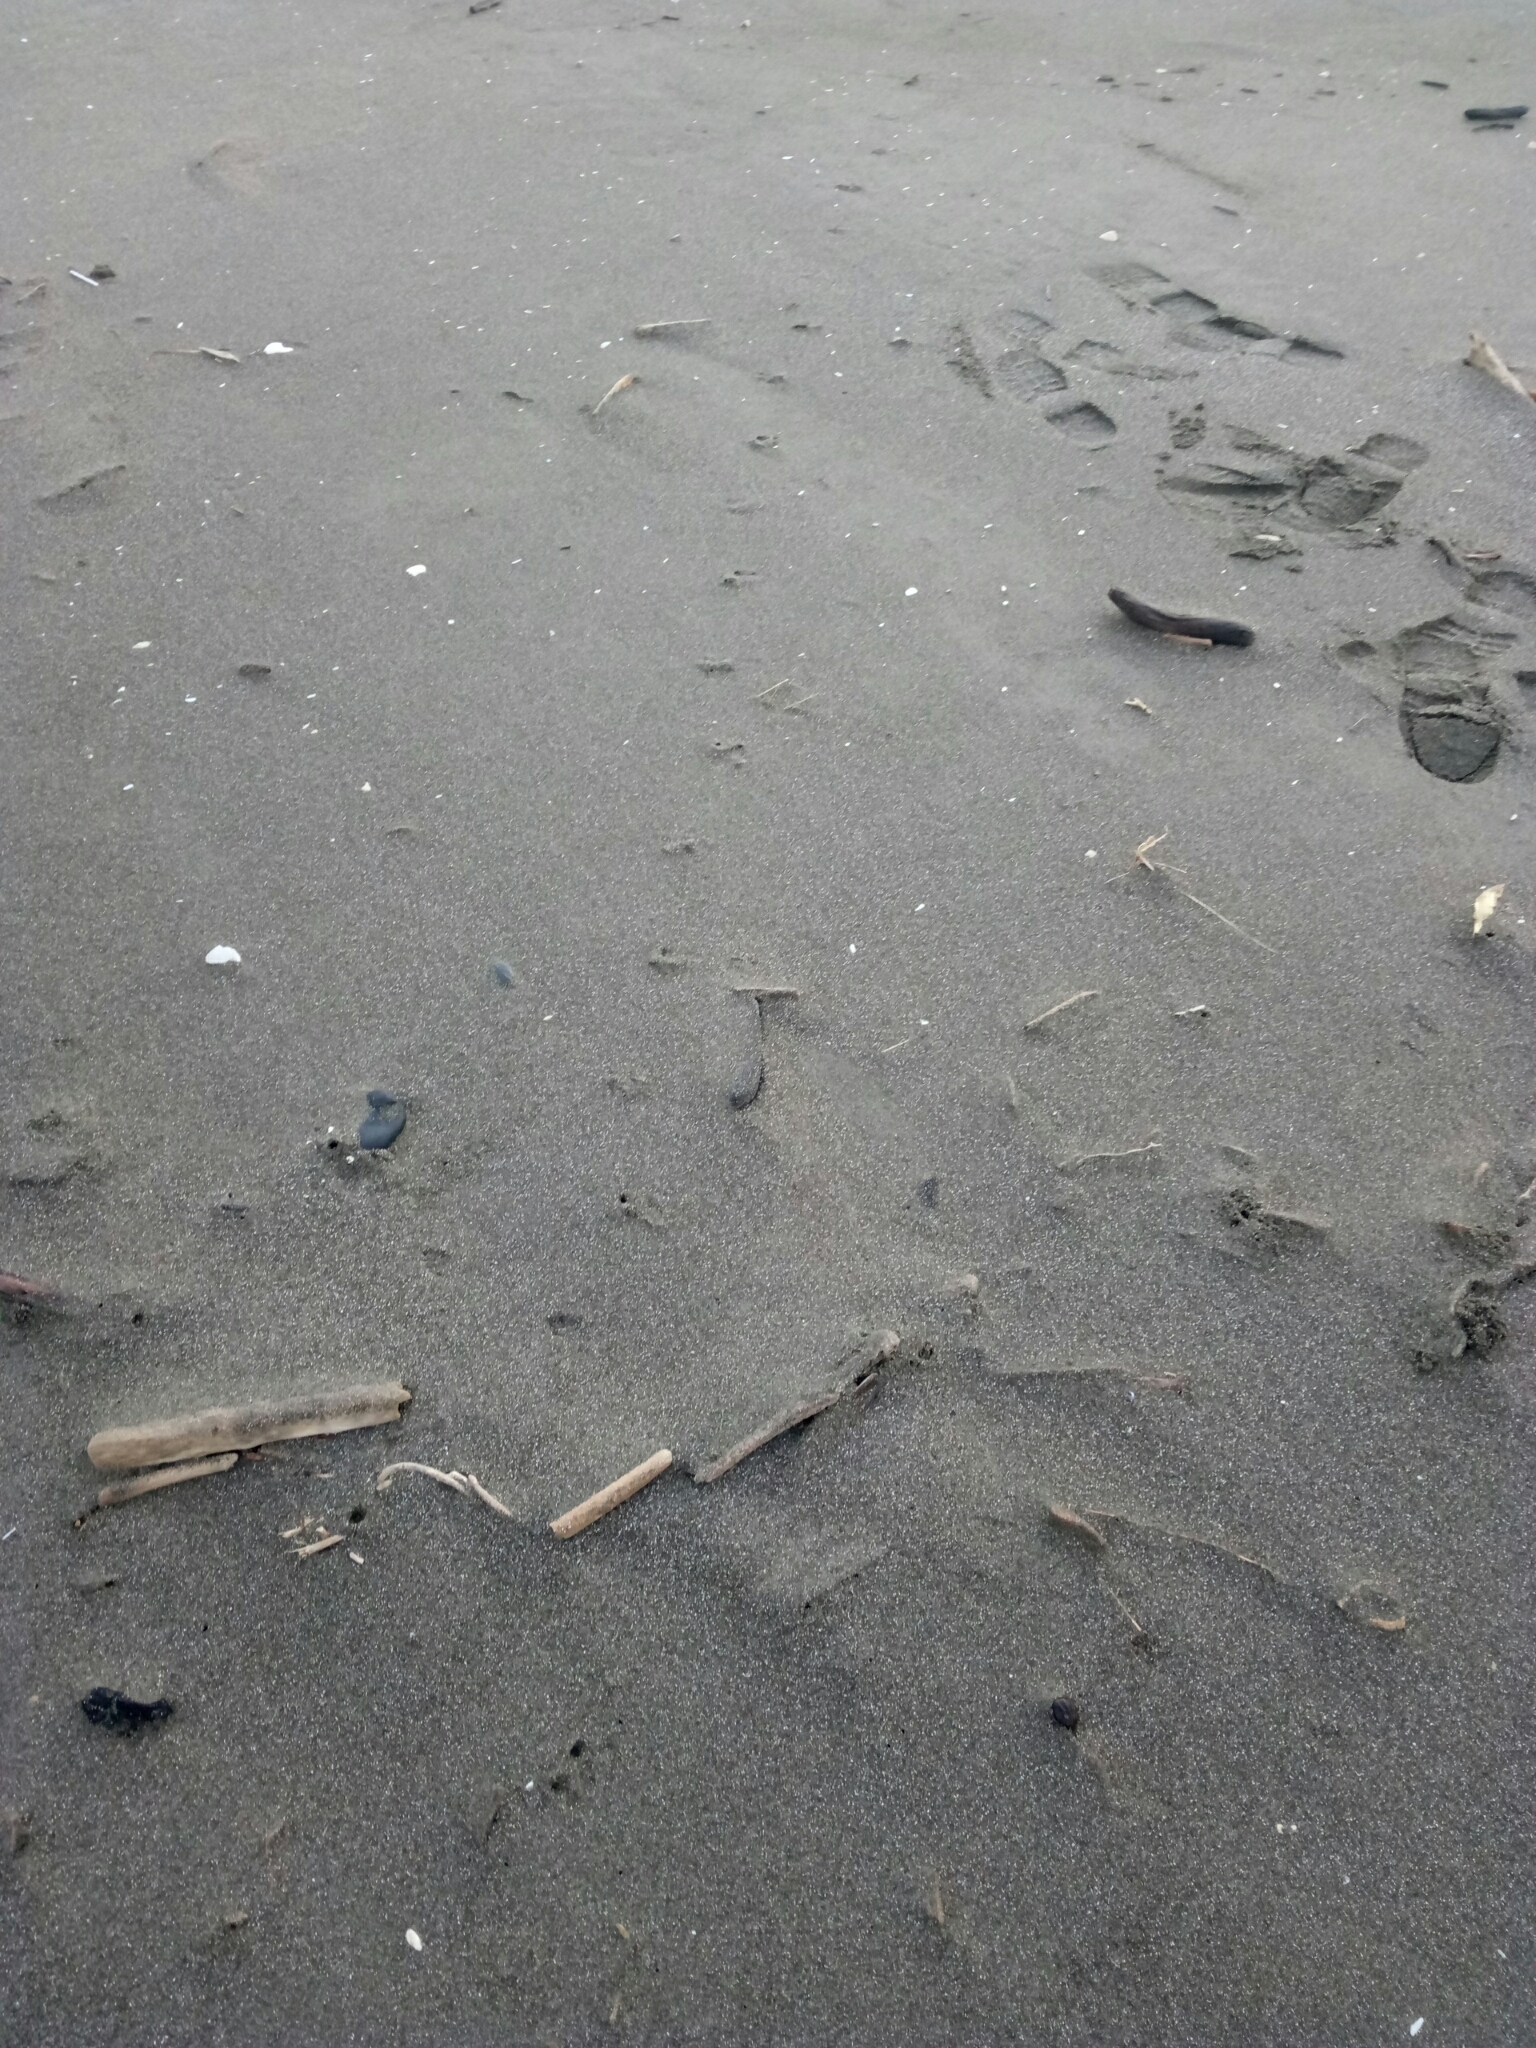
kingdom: Animalia
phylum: Chordata
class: Aves
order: Sphenisciformes
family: Spheniscidae
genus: Eudyptula
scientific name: Eudyptula minor
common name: Little penguin
